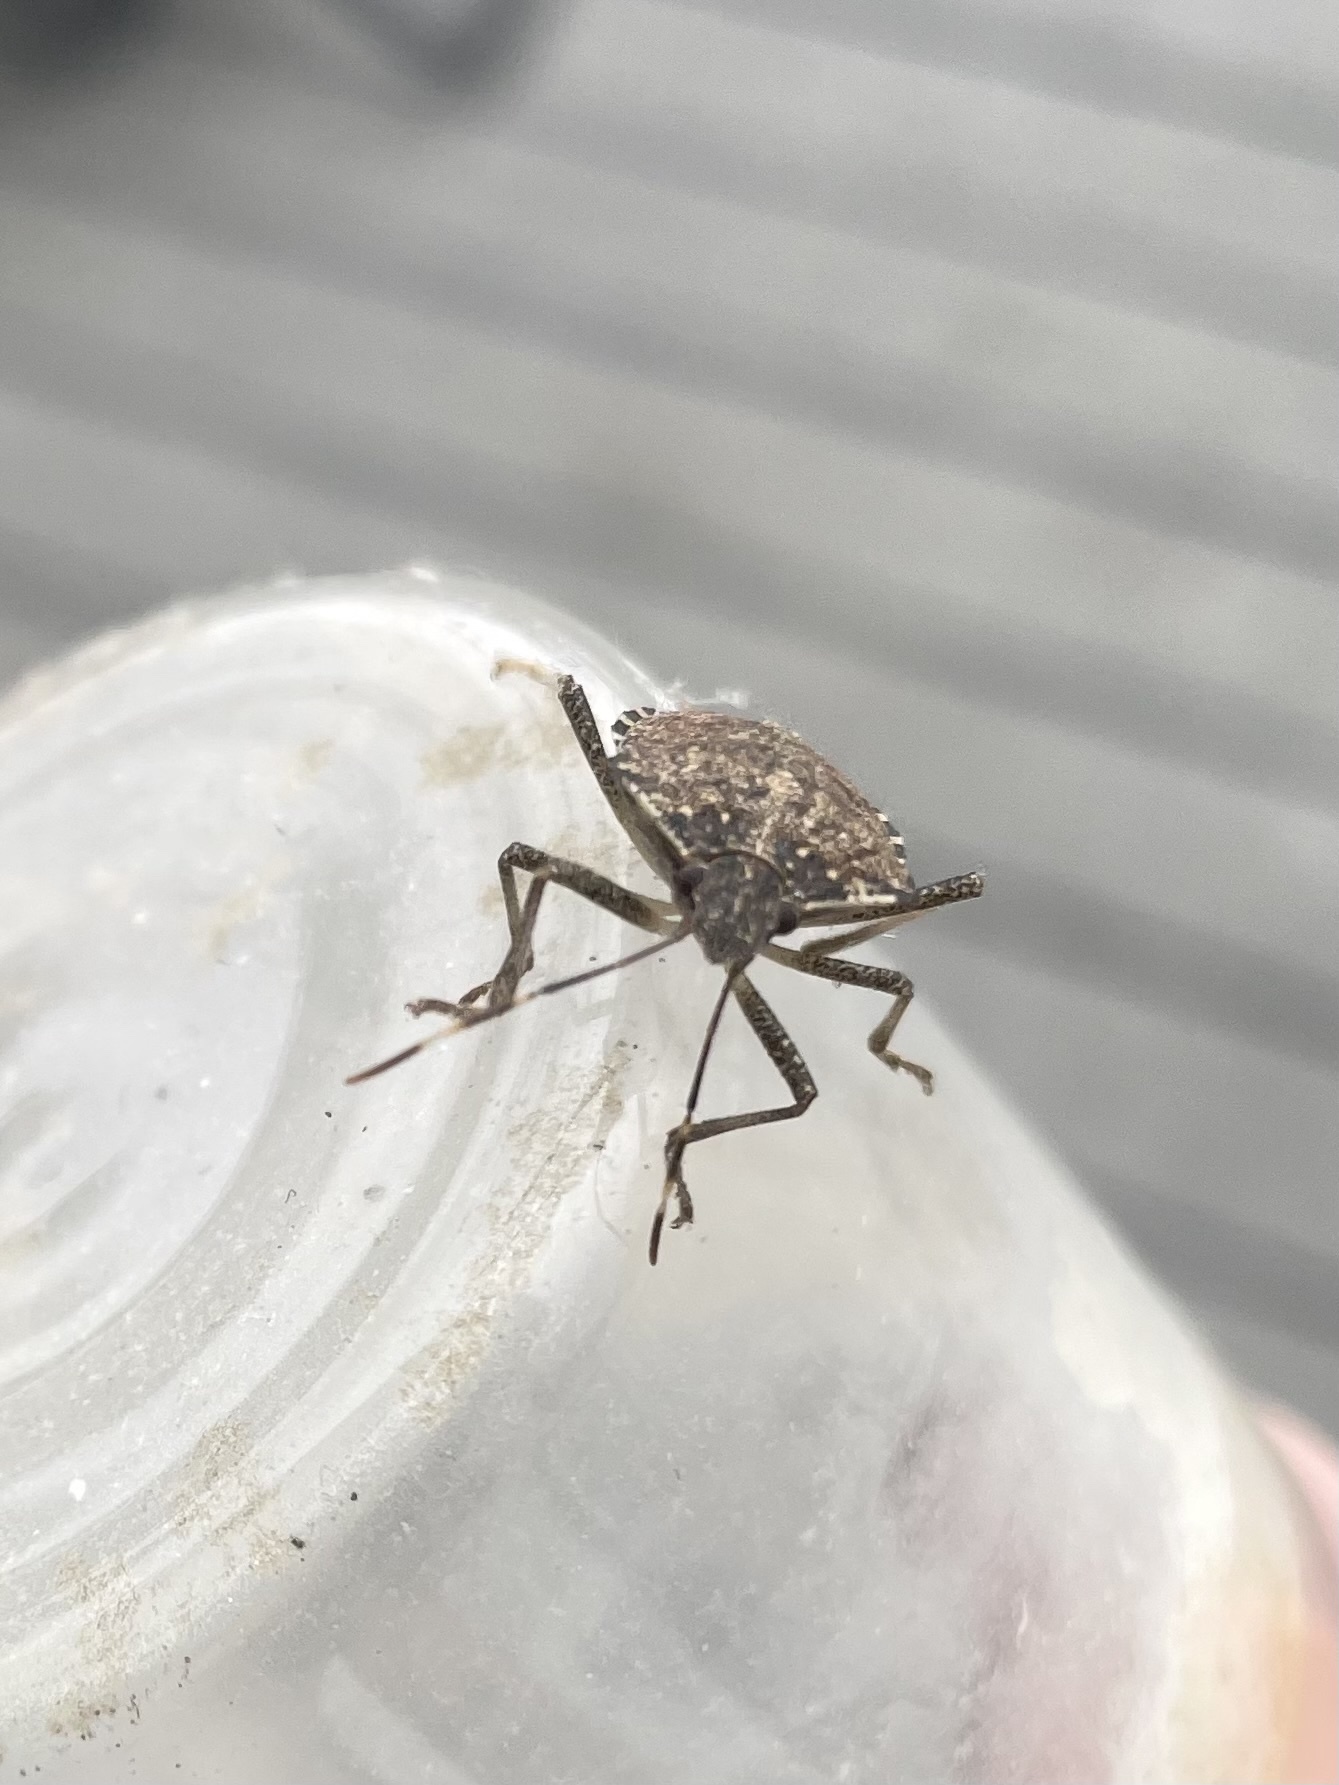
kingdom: Animalia
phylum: Arthropoda
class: Insecta
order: Hemiptera
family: Pentatomidae
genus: Halyomorpha
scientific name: Halyomorpha halys
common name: Brown marmorated stink bug
